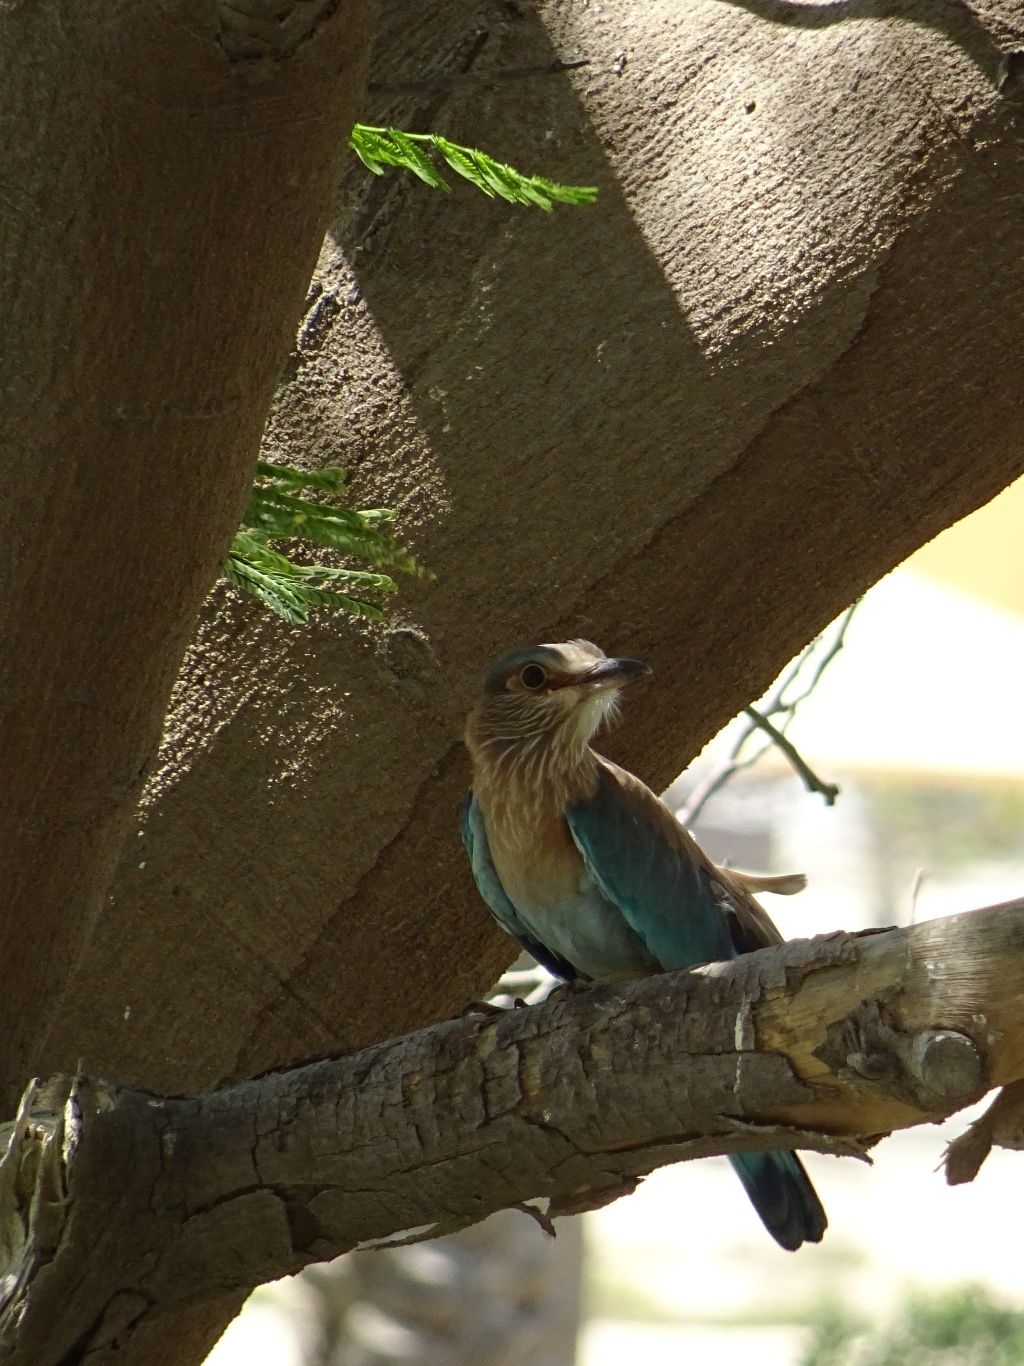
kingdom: Animalia
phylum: Chordata
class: Aves
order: Coraciiformes
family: Coraciidae
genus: Coracias
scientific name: Coracias benghalensis
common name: Indian roller
